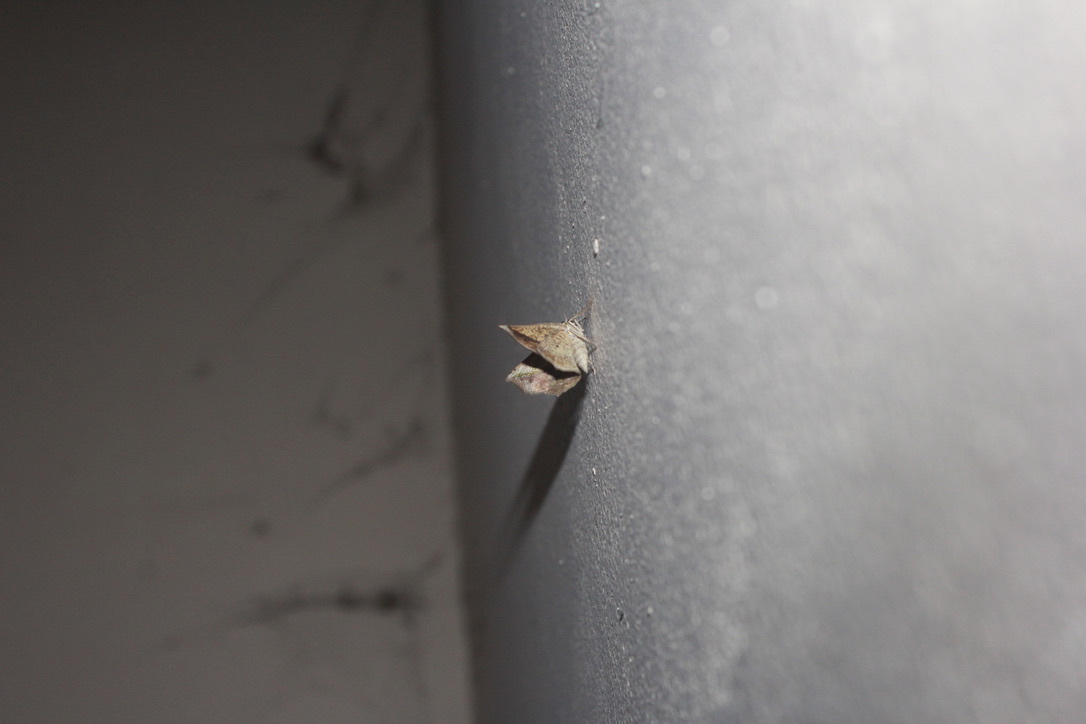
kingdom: Animalia
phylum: Arthropoda
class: Insecta
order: Lepidoptera
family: Geometridae
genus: Eusarca
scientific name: Eusarca concomitaria
